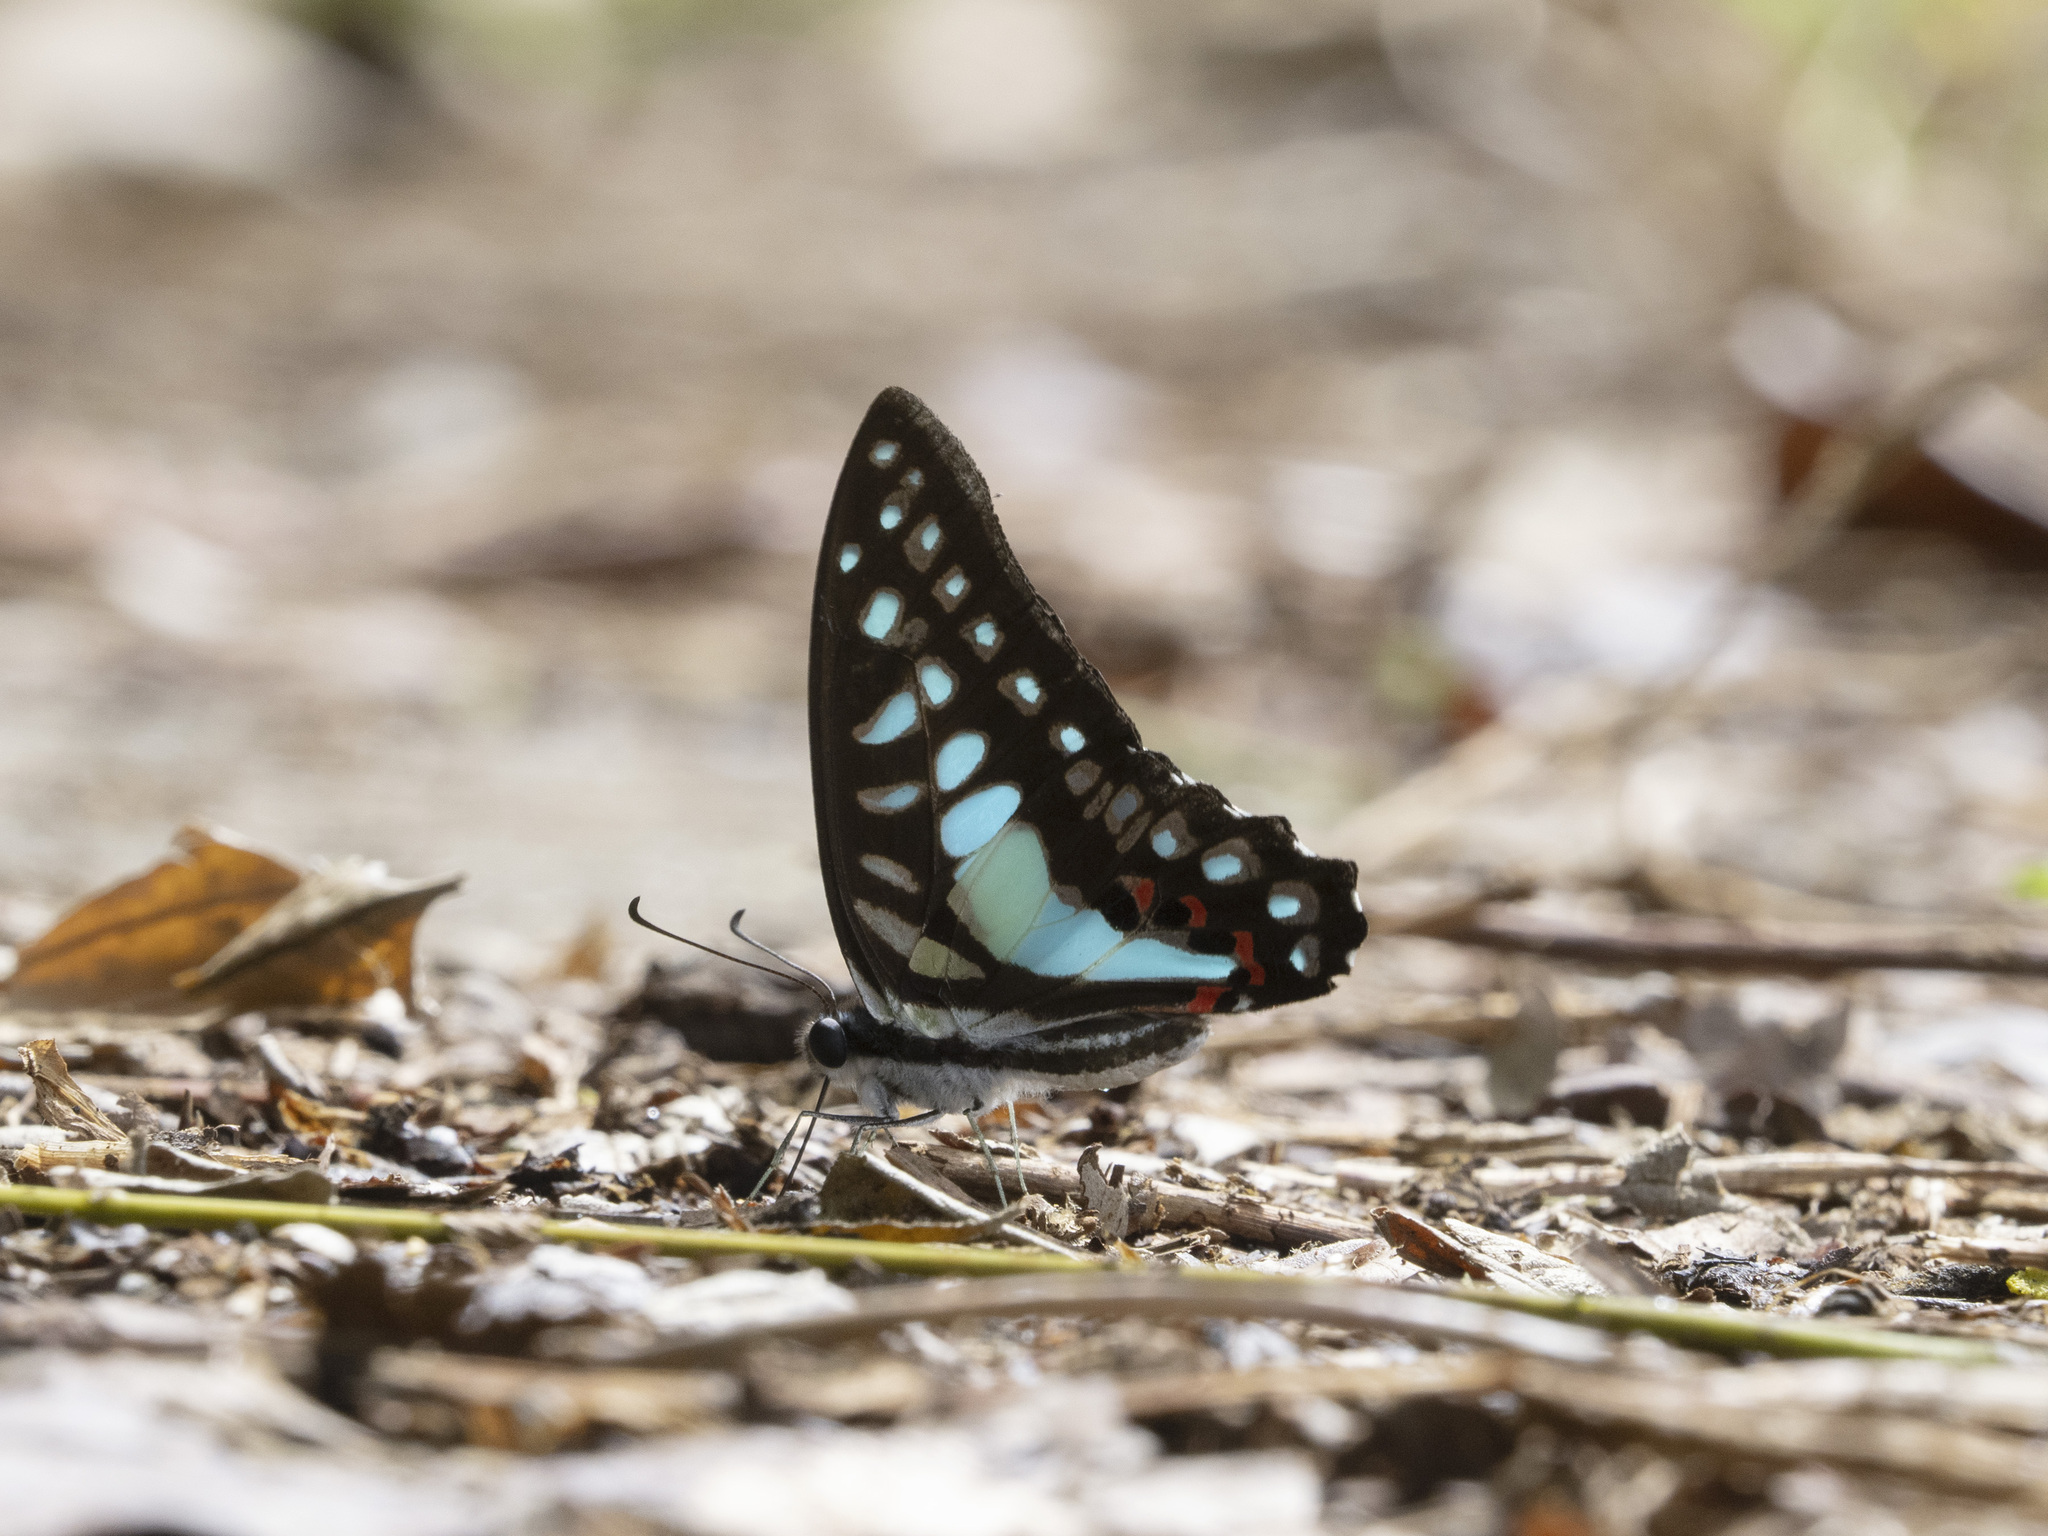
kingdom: Animalia
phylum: Arthropoda
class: Insecta
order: Lepidoptera
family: Papilionidae
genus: Graphium
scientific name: Graphium evemon
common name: Lesser jay
